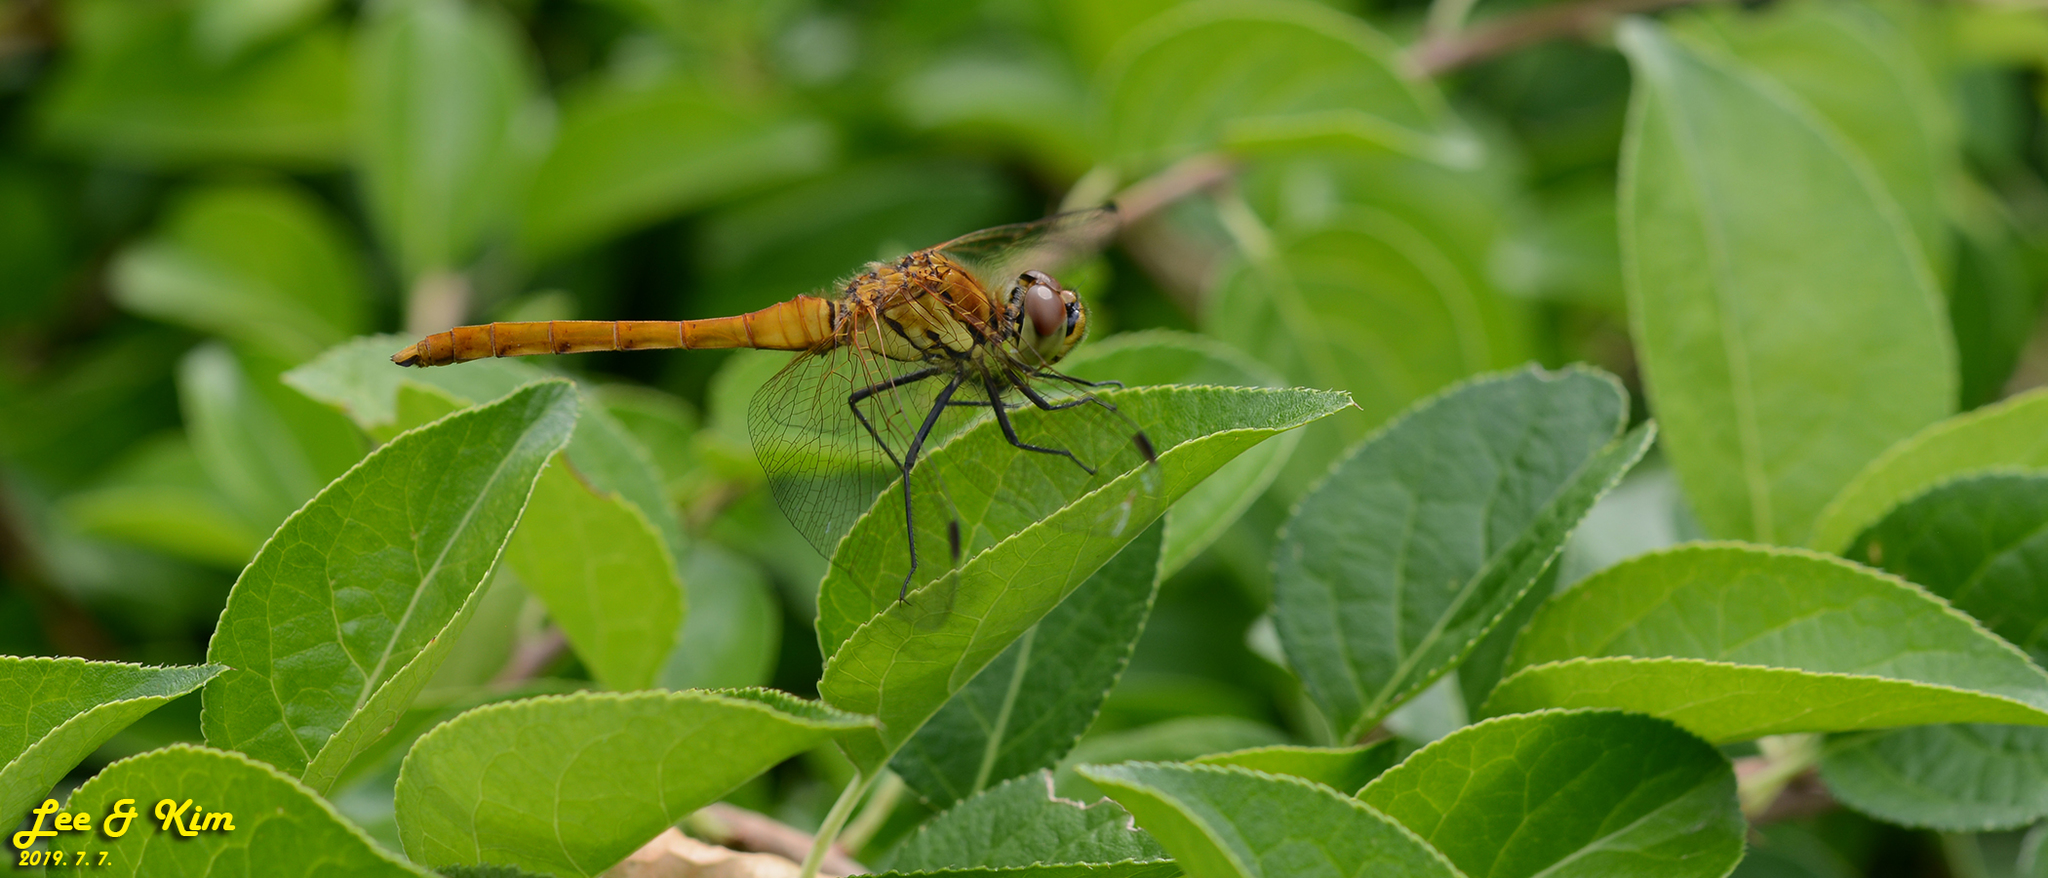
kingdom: Animalia
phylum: Arthropoda
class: Insecta
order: Odonata
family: Libellulidae
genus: Sympetrum
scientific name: Sympetrum depressiusculum
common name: Spotted darter
